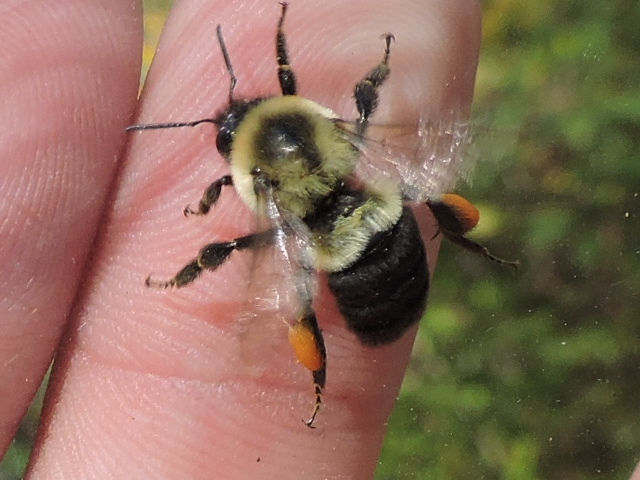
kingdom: Animalia
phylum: Arthropoda
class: Insecta
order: Hymenoptera
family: Apidae
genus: Bombus
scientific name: Bombus impatiens
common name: Common eastern bumble bee
